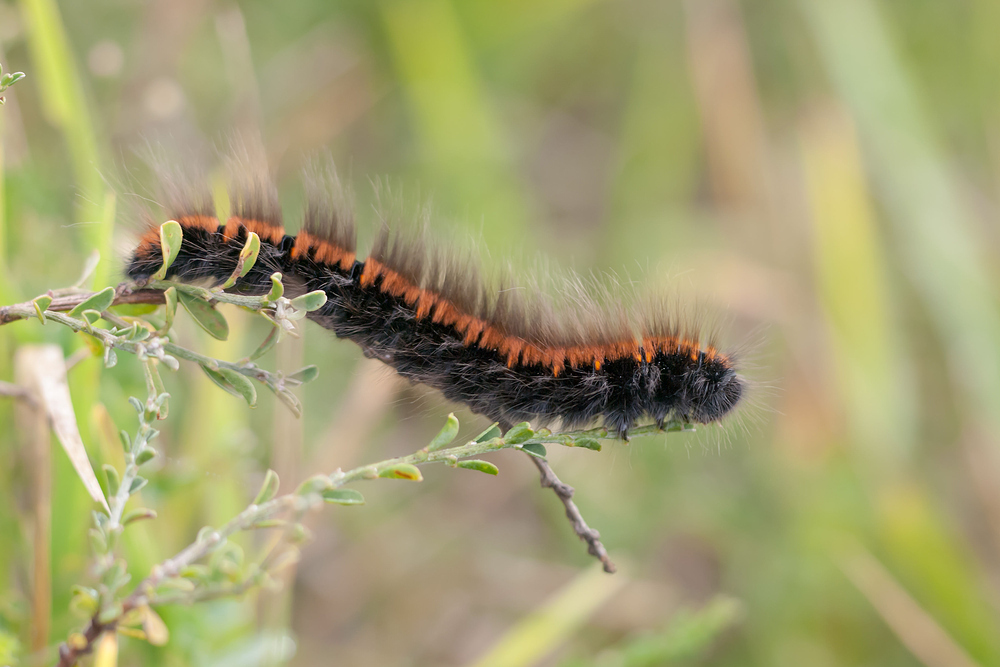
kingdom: Animalia
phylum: Arthropoda
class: Insecta
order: Lepidoptera
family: Lasiocampidae
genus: Macrothylacia
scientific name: Macrothylacia rubi
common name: Fox moth
